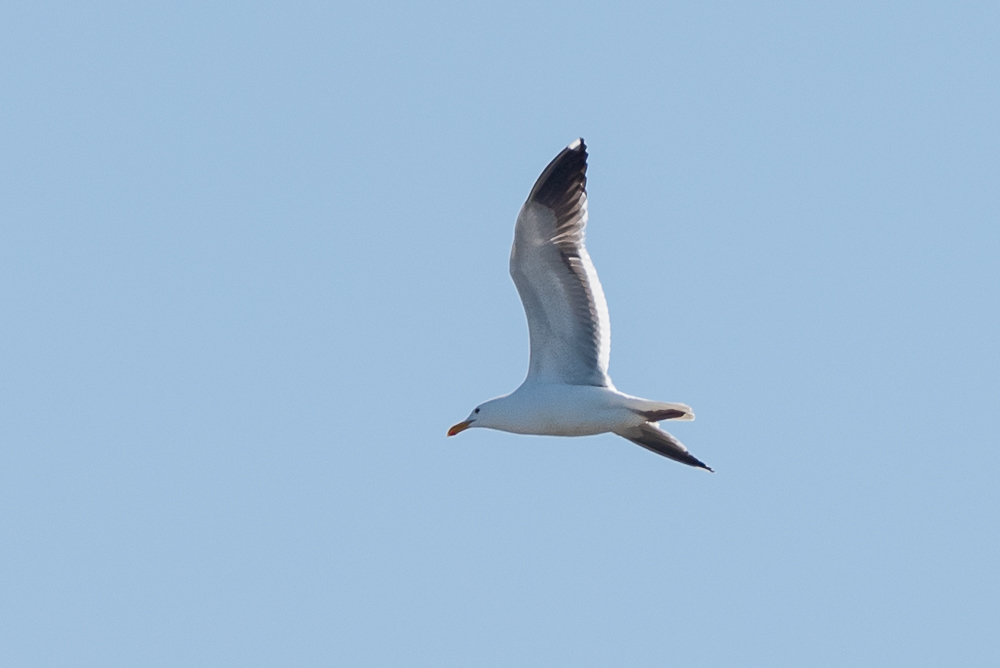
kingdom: Animalia
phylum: Chordata
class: Aves
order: Charadriiformes
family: Laridae
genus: Larus
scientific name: Larus occidentalis
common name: Western gull
